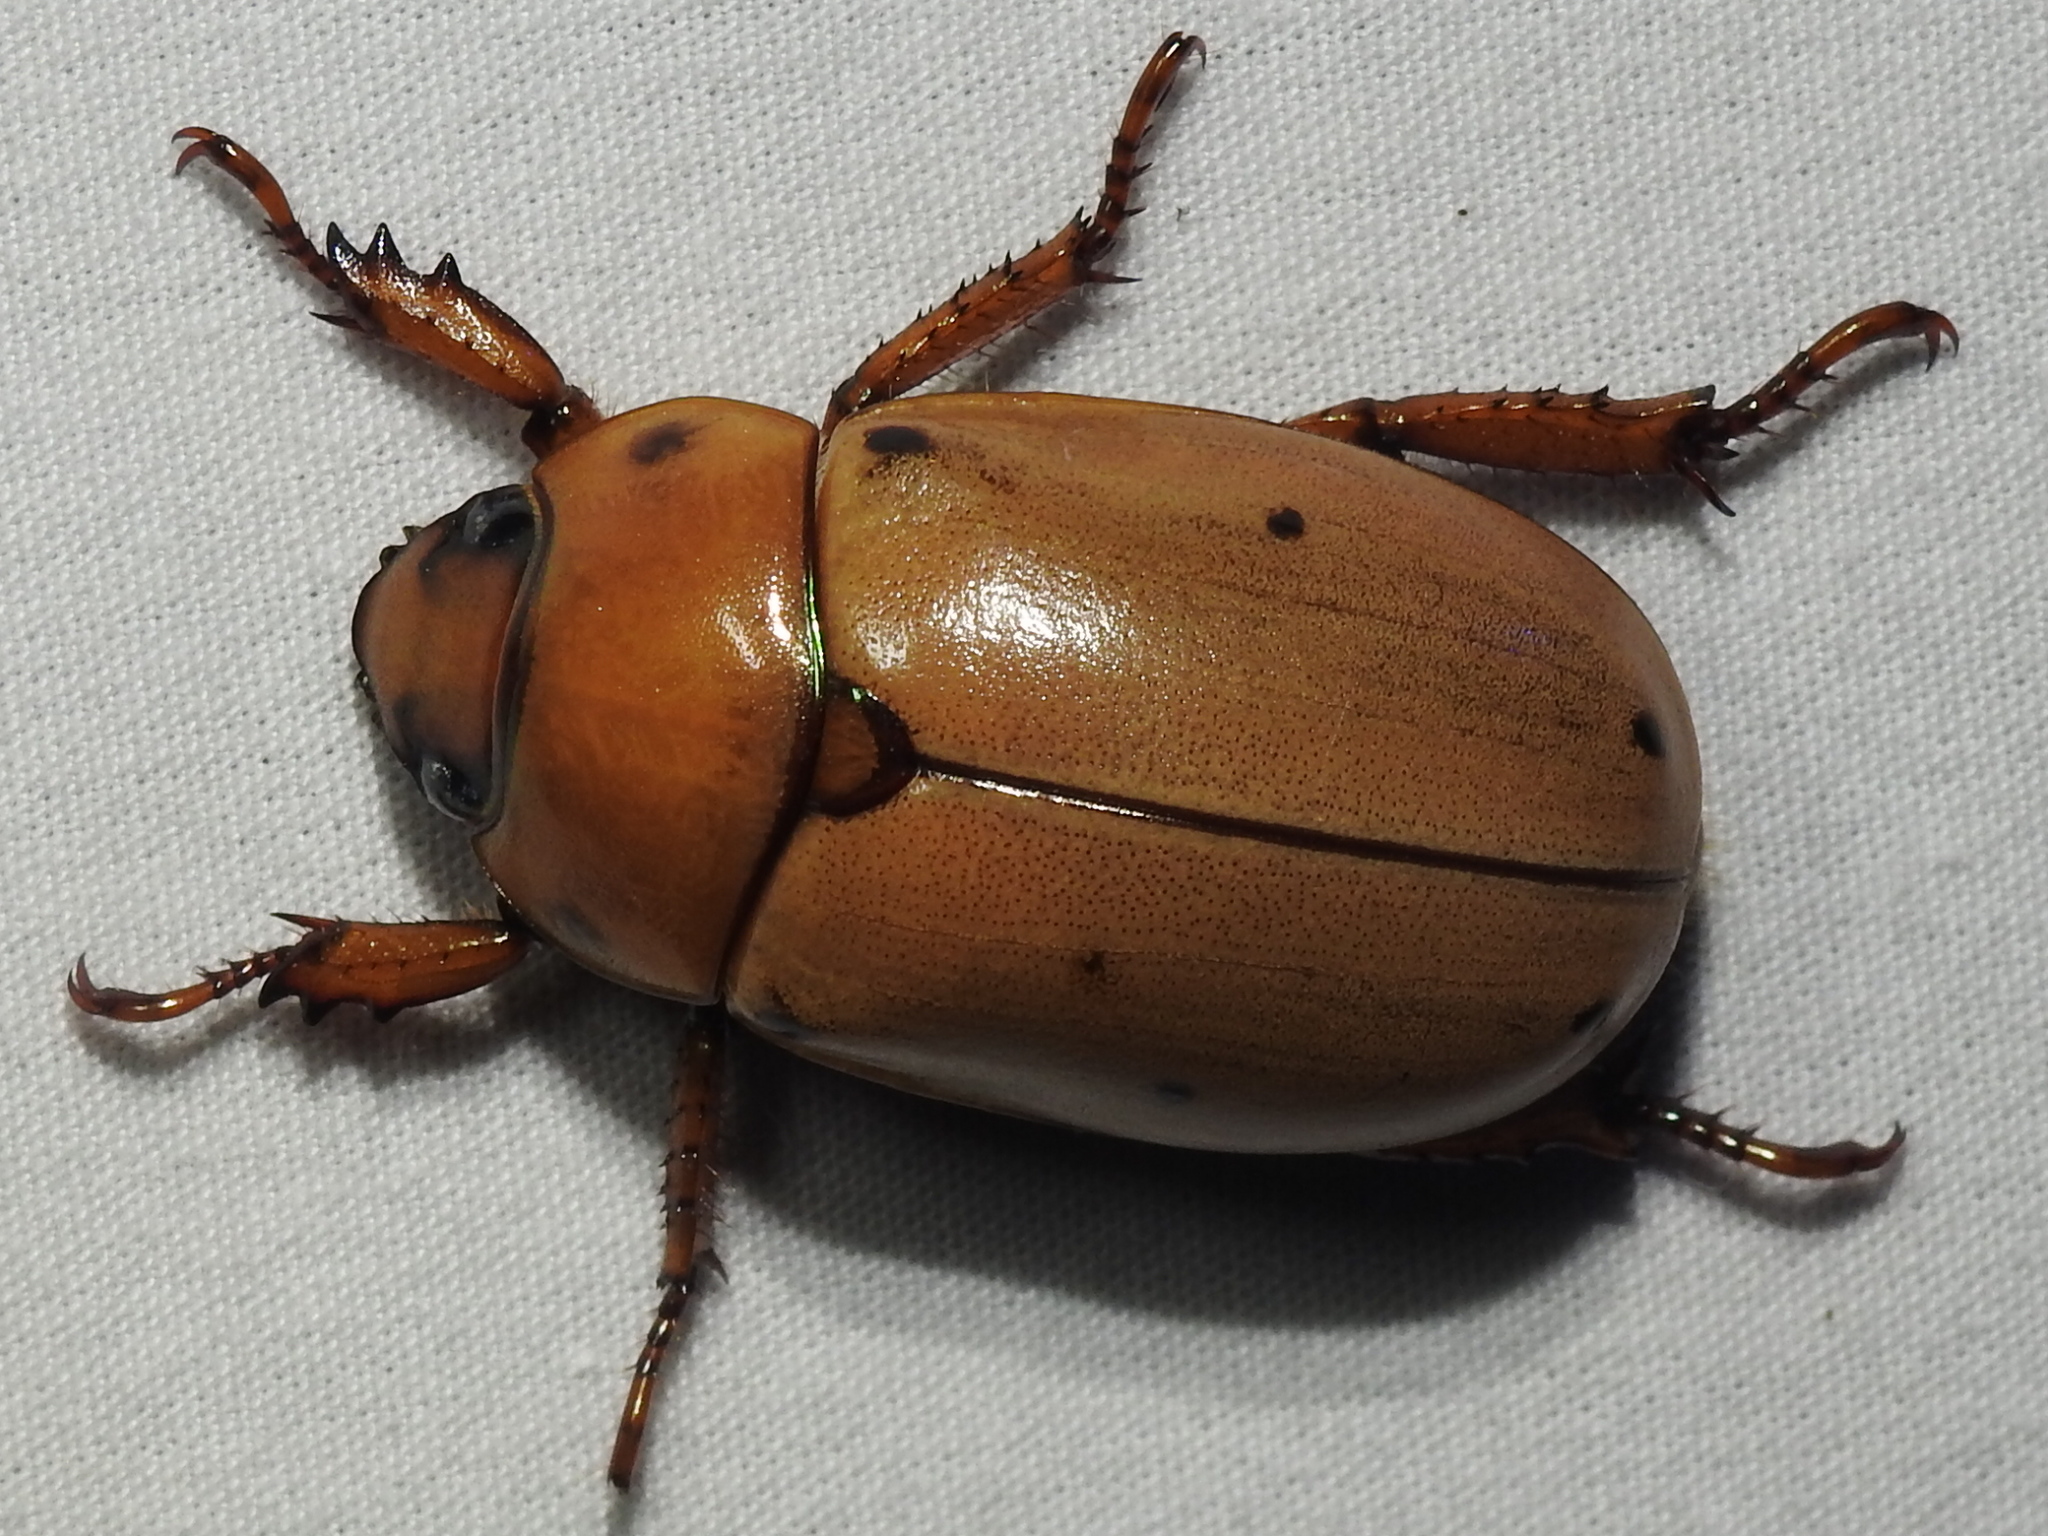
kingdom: Animalia
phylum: Arthropoda
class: Insecta
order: Coleoptera
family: Scarabaeidae
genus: Pelidnota
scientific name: Pelidnota punctata
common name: Grapevine beetle
